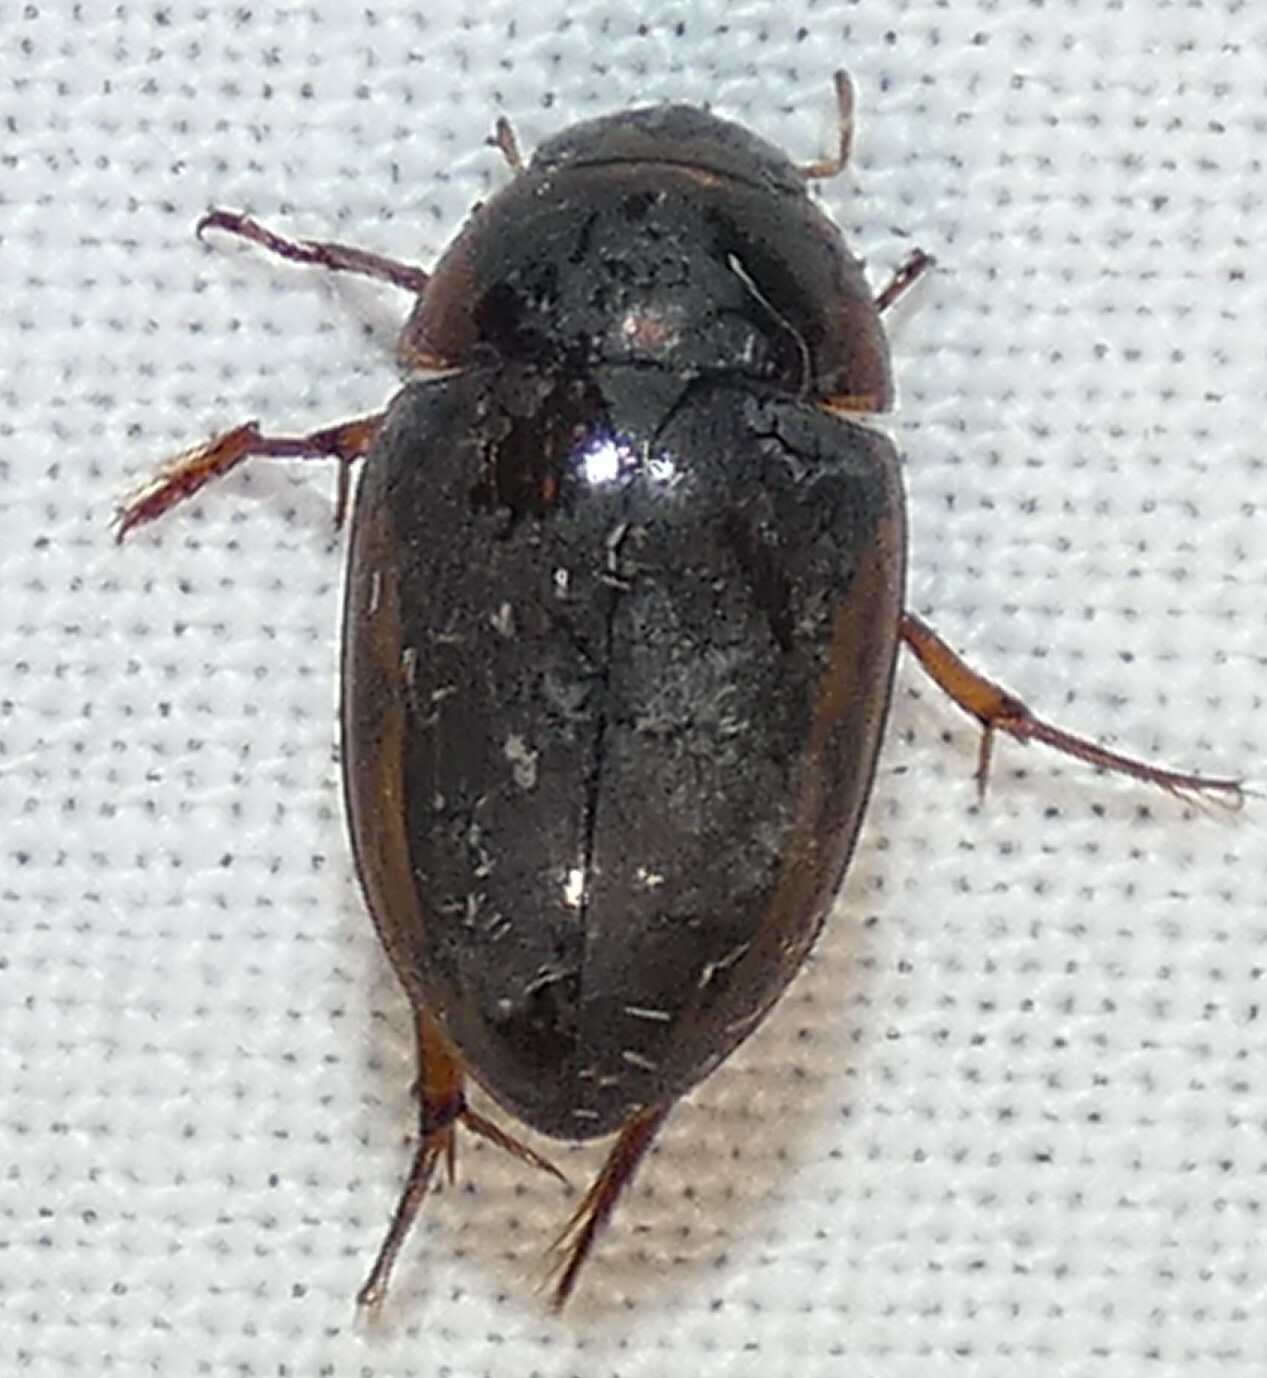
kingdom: Animalia
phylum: Arthropoda
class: Insecta
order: Coleoptera
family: Hydrophilidae
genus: Tropisternus
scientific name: Tropisternus collaris
